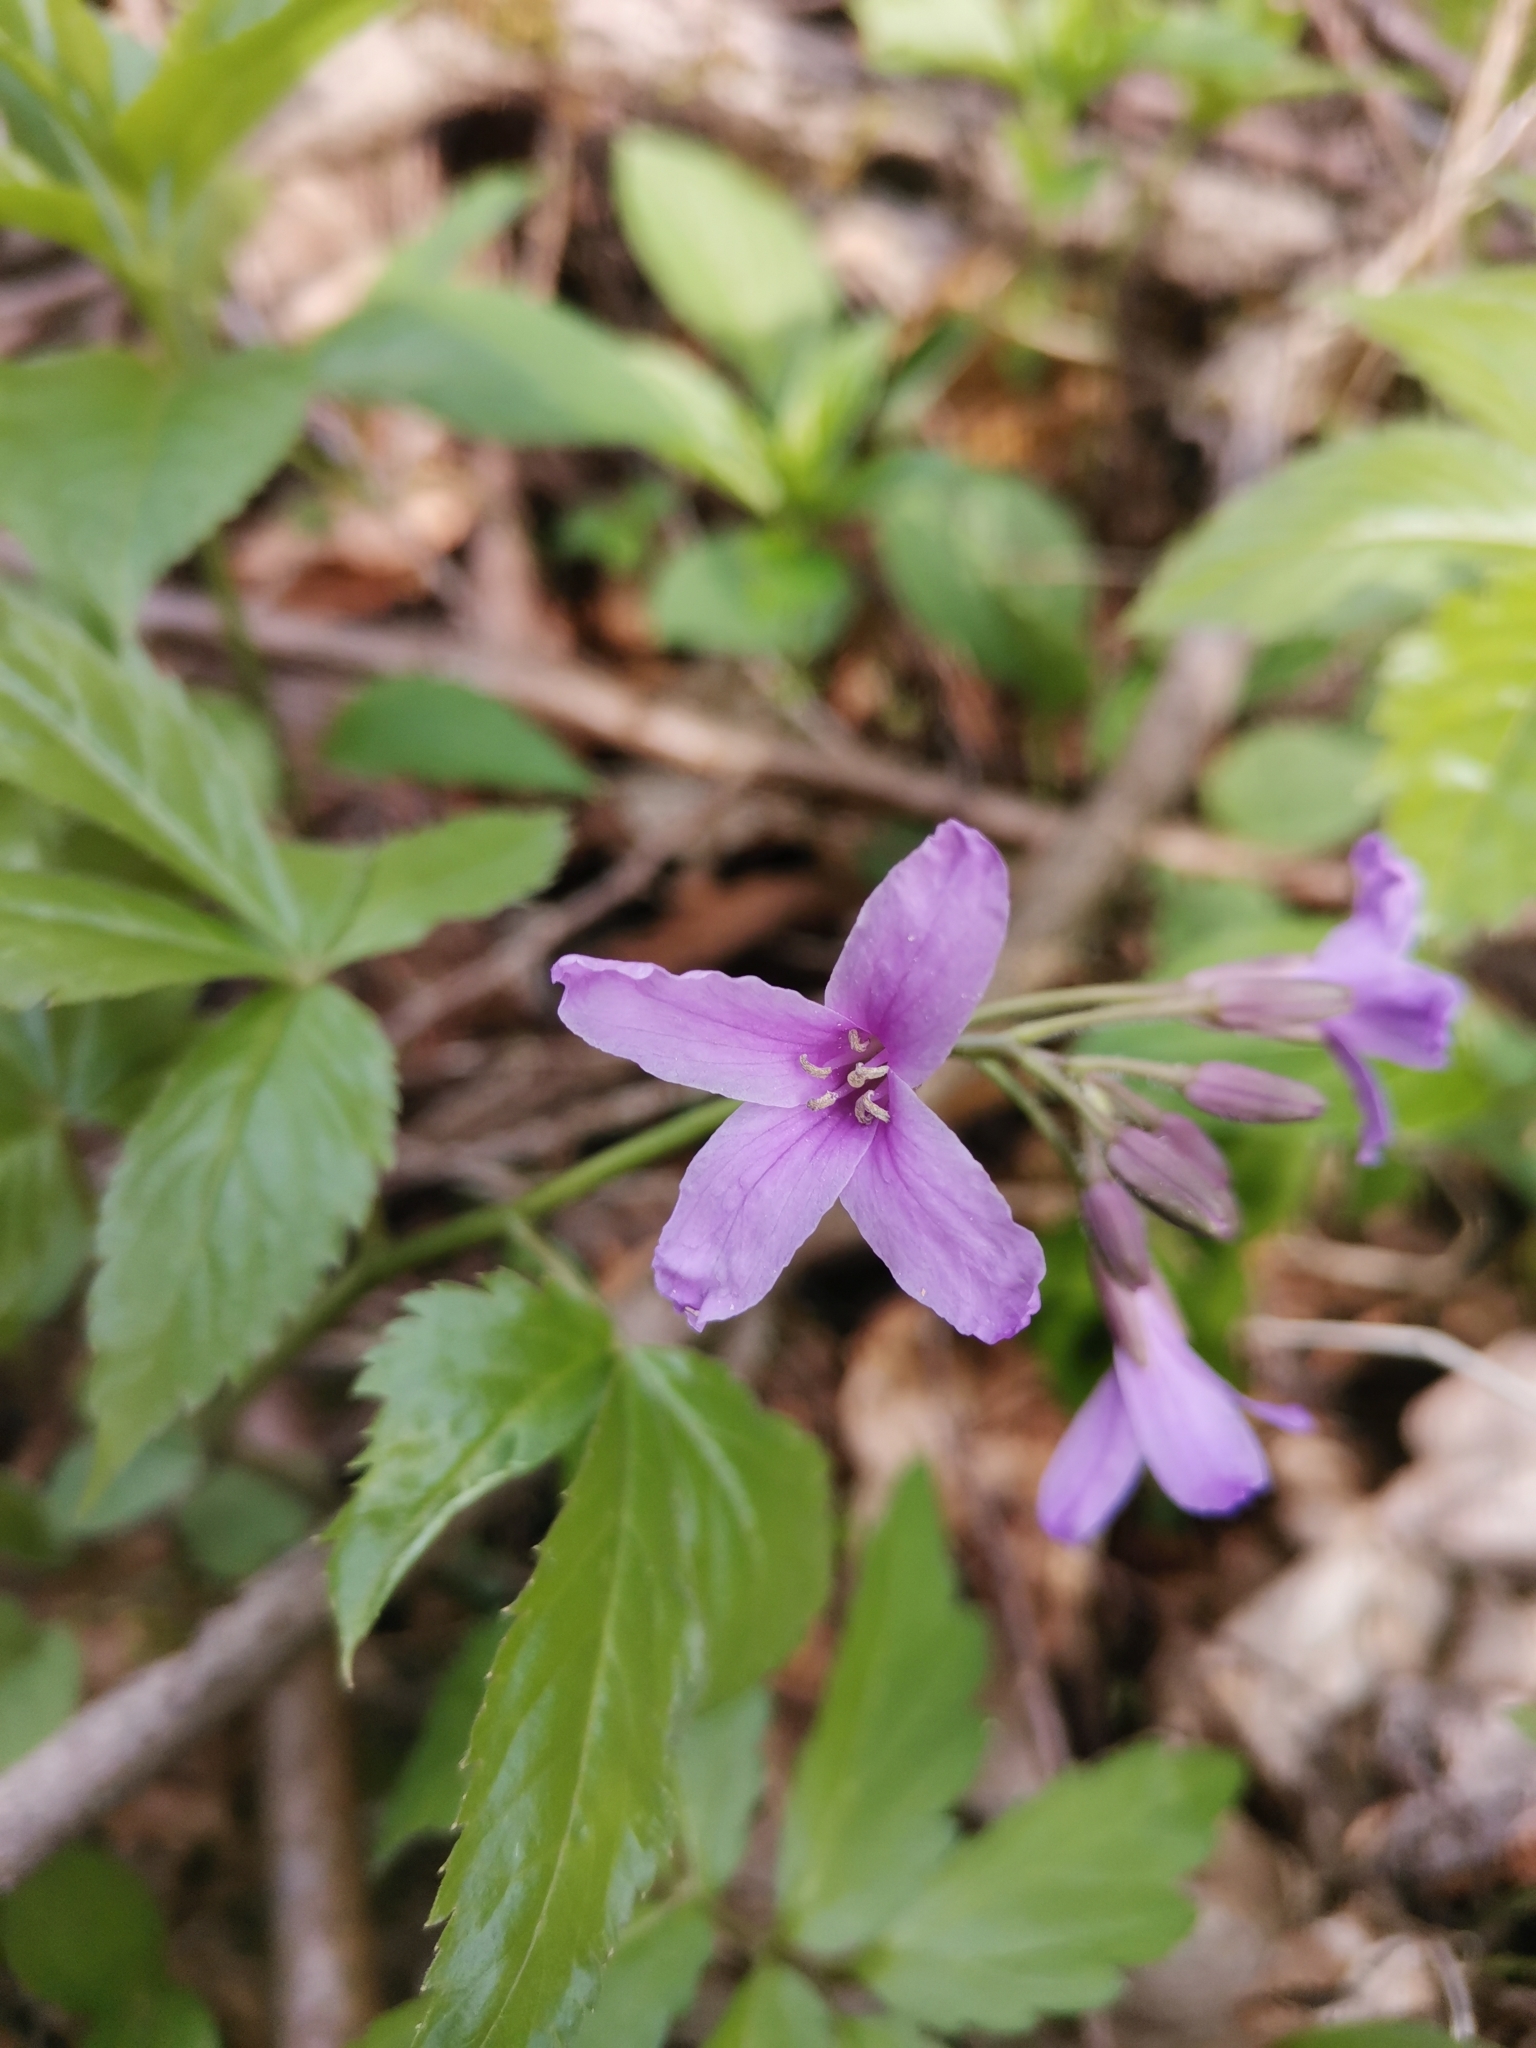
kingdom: Plantae
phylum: Tracheophyta
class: Magnoliopsida
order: Brassicales
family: Brassicaceae
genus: Cardamine
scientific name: Cardamine pentaphyllos
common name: Five-leaflet bitter-cress
